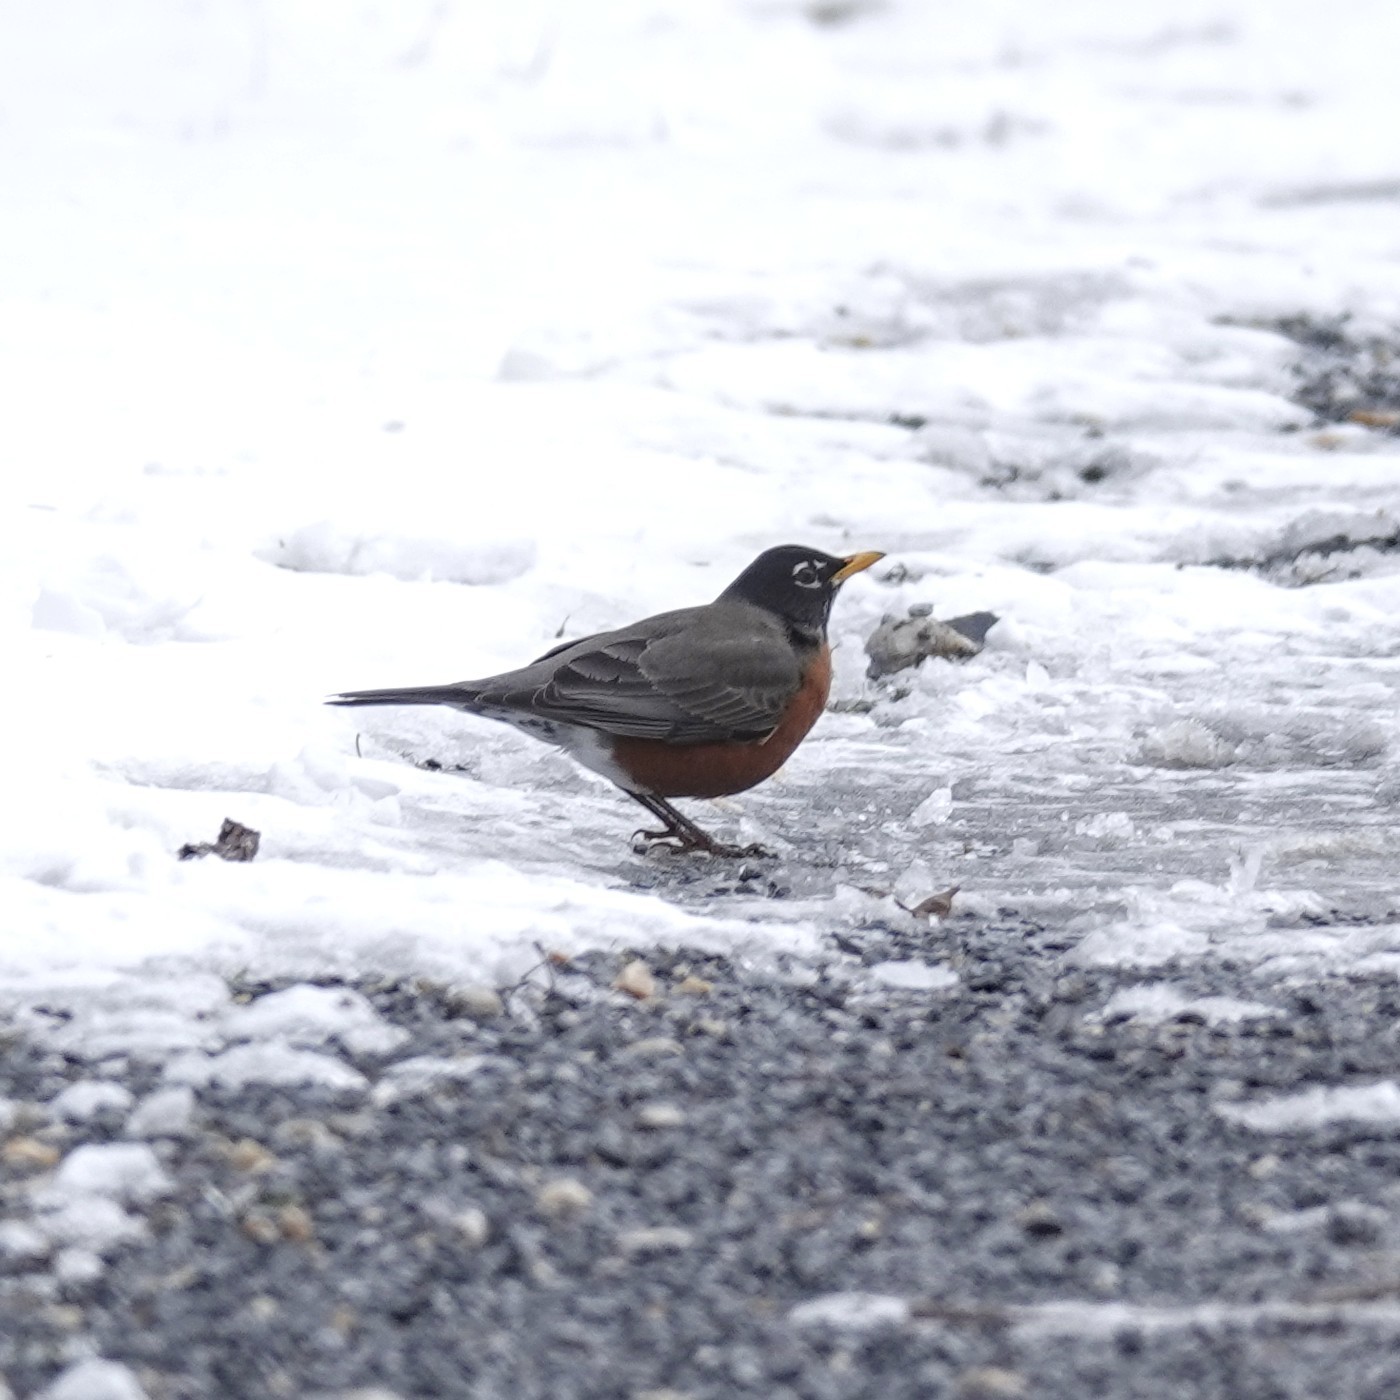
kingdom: Animalia
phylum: Chordata
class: Aves
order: Passeriformes
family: Turdidae
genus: Turdus
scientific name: Turdus migratorius
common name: American robin
